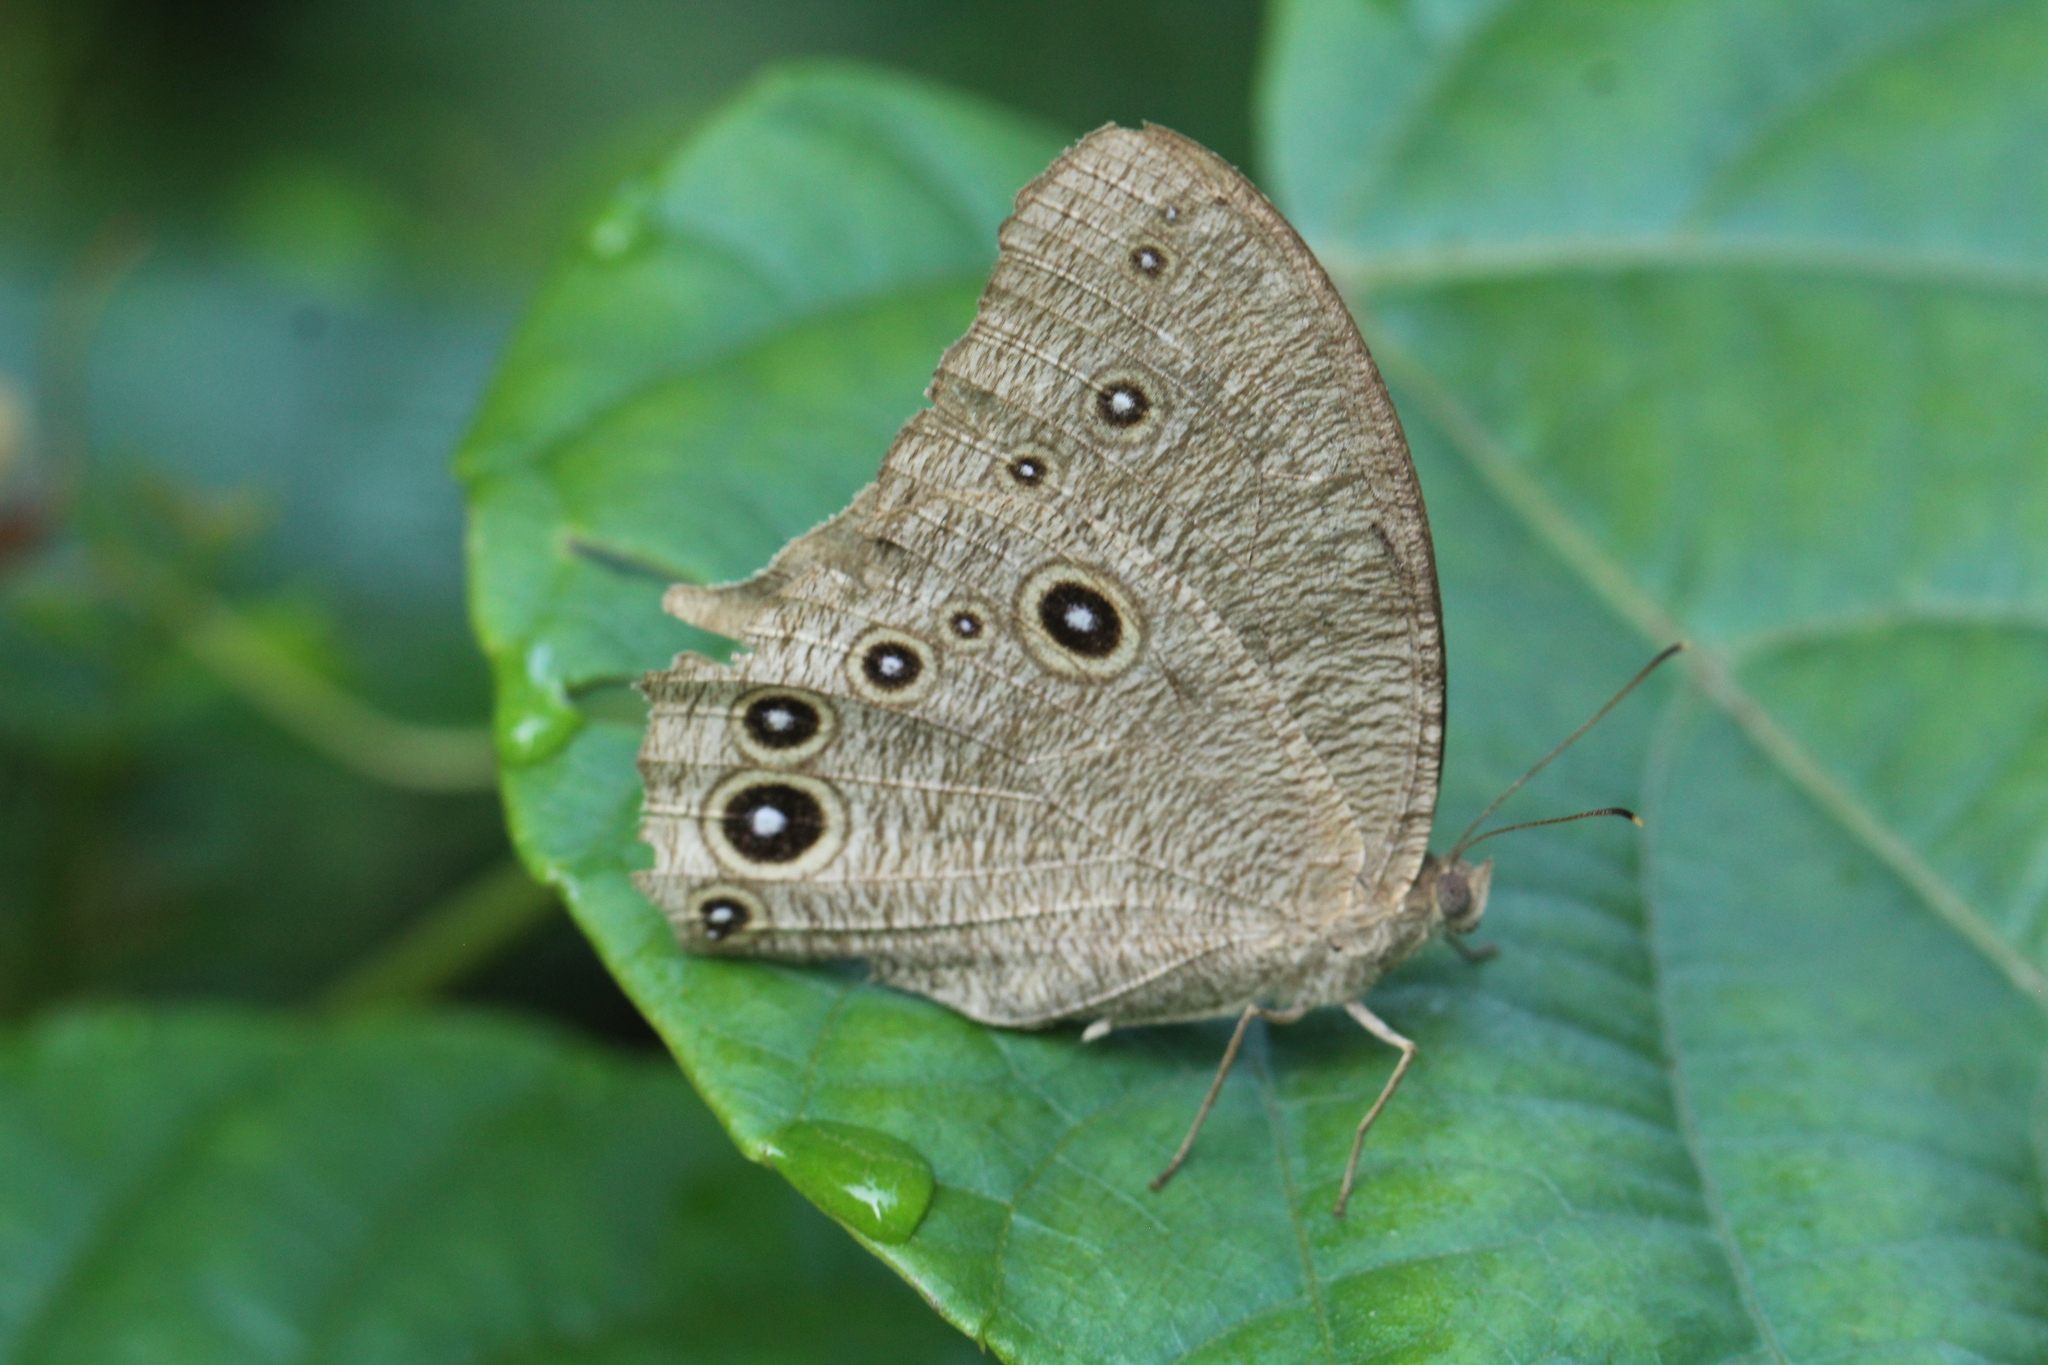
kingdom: Animalia
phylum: Arthropoda
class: Insecta
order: Lepidoptera
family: Nymphalidae
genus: Melanitis
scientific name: Melanitis leda
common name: Twilight brown
